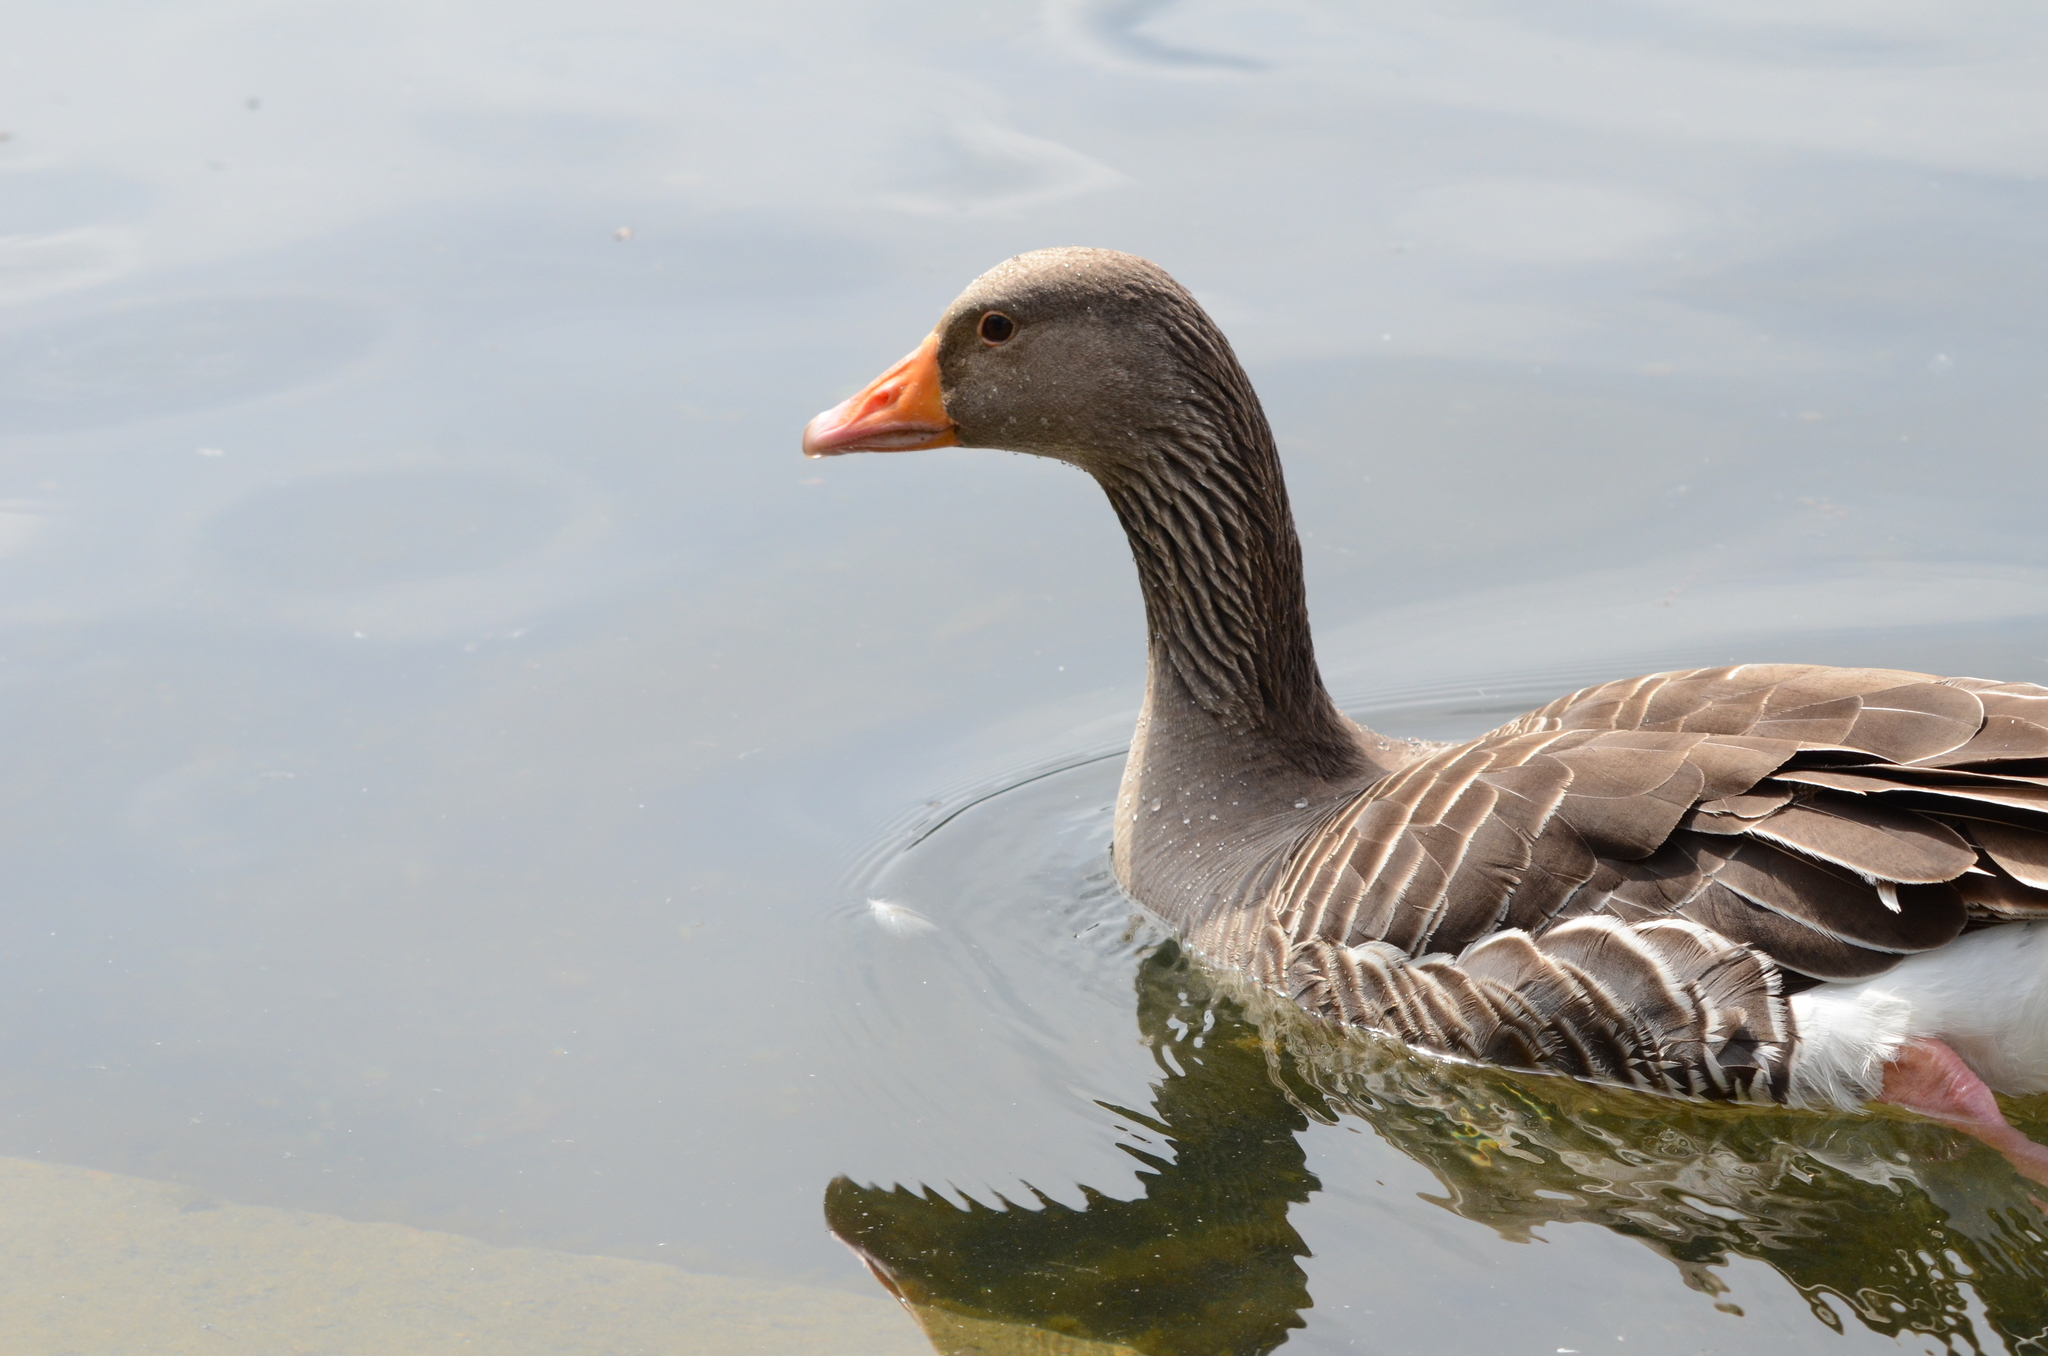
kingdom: Animalia
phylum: Chordata
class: Aves
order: Anseriformes
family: Anatidae
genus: Anser
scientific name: Anser anser
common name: Greylag goose
